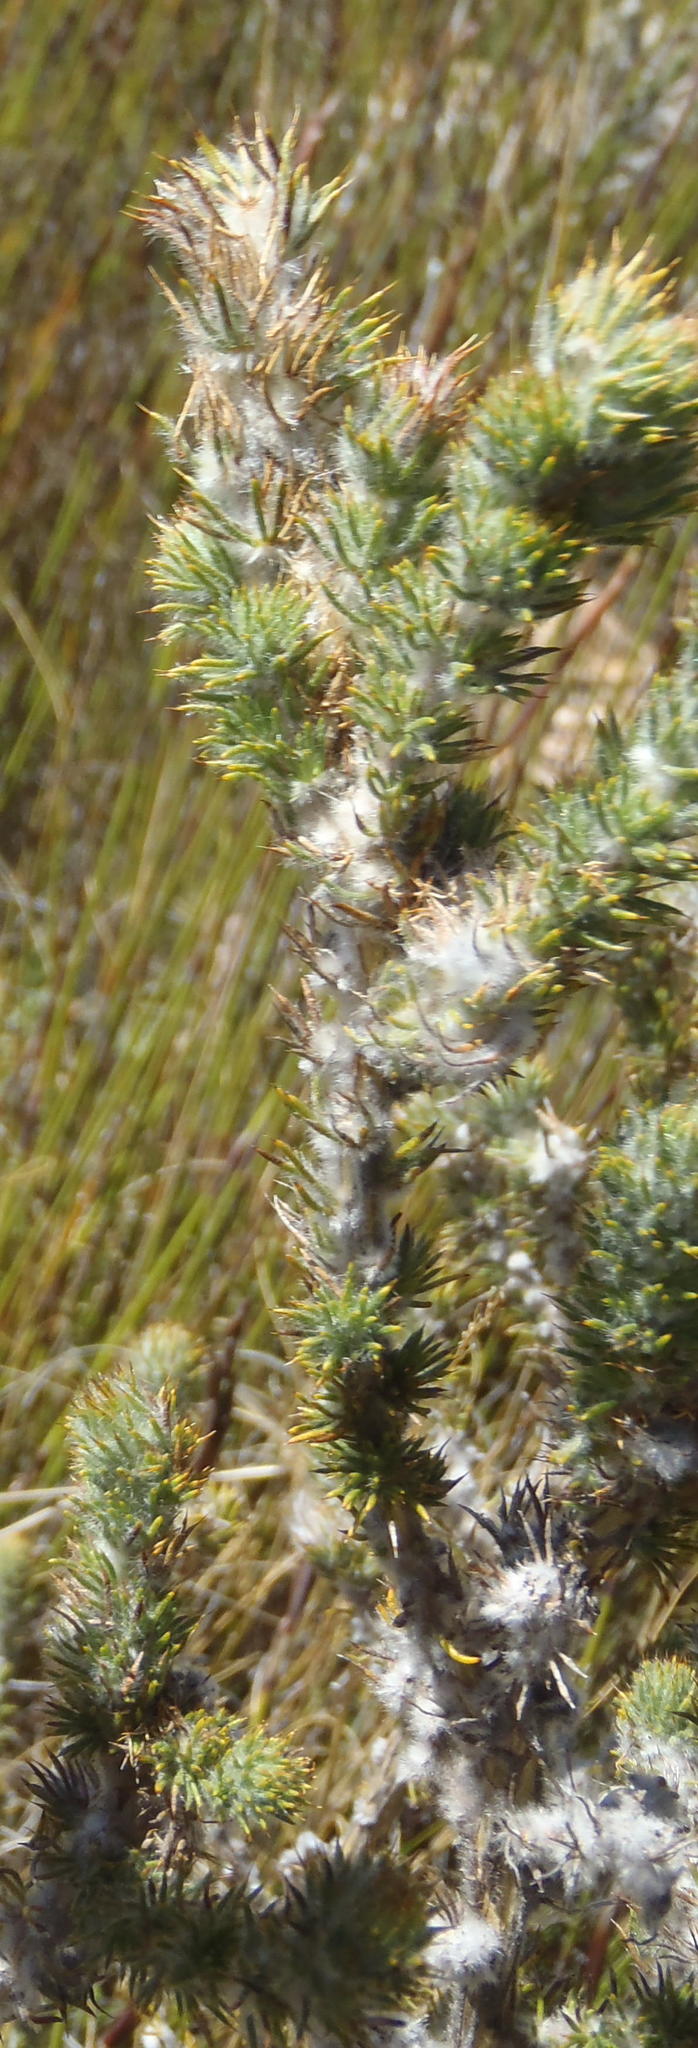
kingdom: Plantae
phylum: Tracheophyta
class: Magnoliopsida
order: Fabales
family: Fabaceae
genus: Aspalathus
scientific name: Aspalathus shawii
